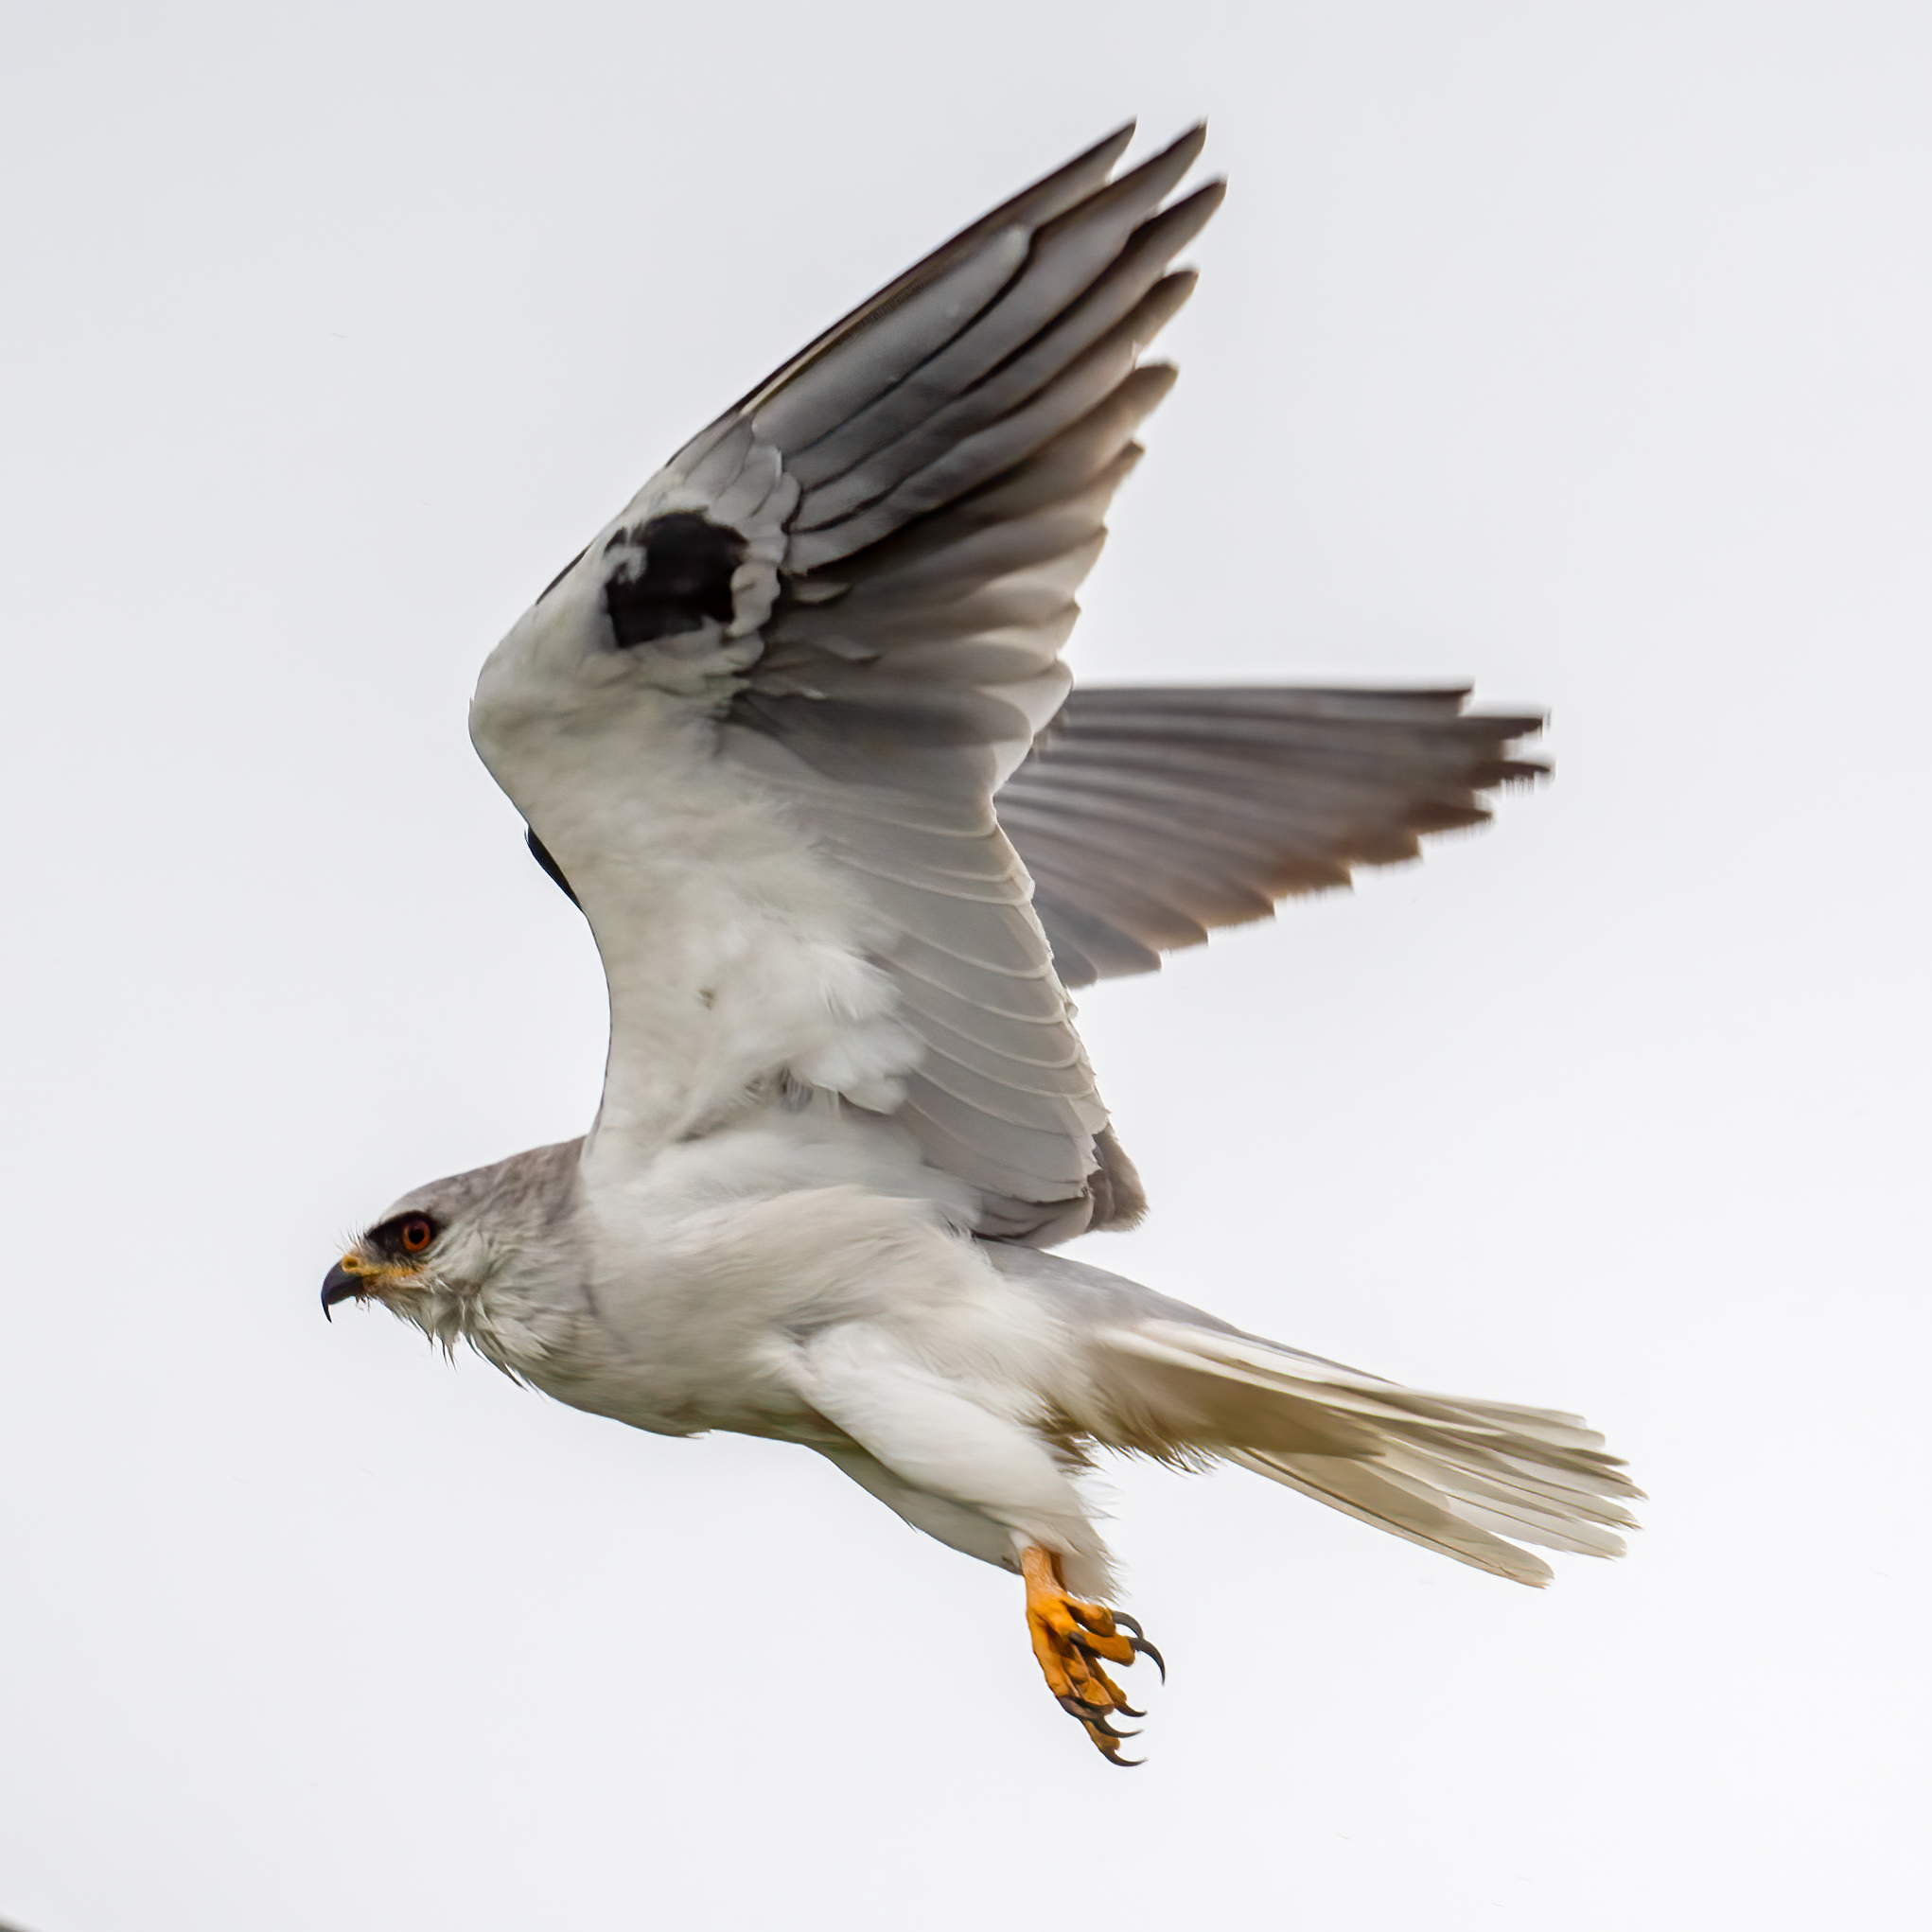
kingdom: Animalia
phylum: Chordata
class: Aves
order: Accipitriformes
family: Accipitridae
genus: Elanus
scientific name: Elanus leucurus
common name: White-tailed kite
